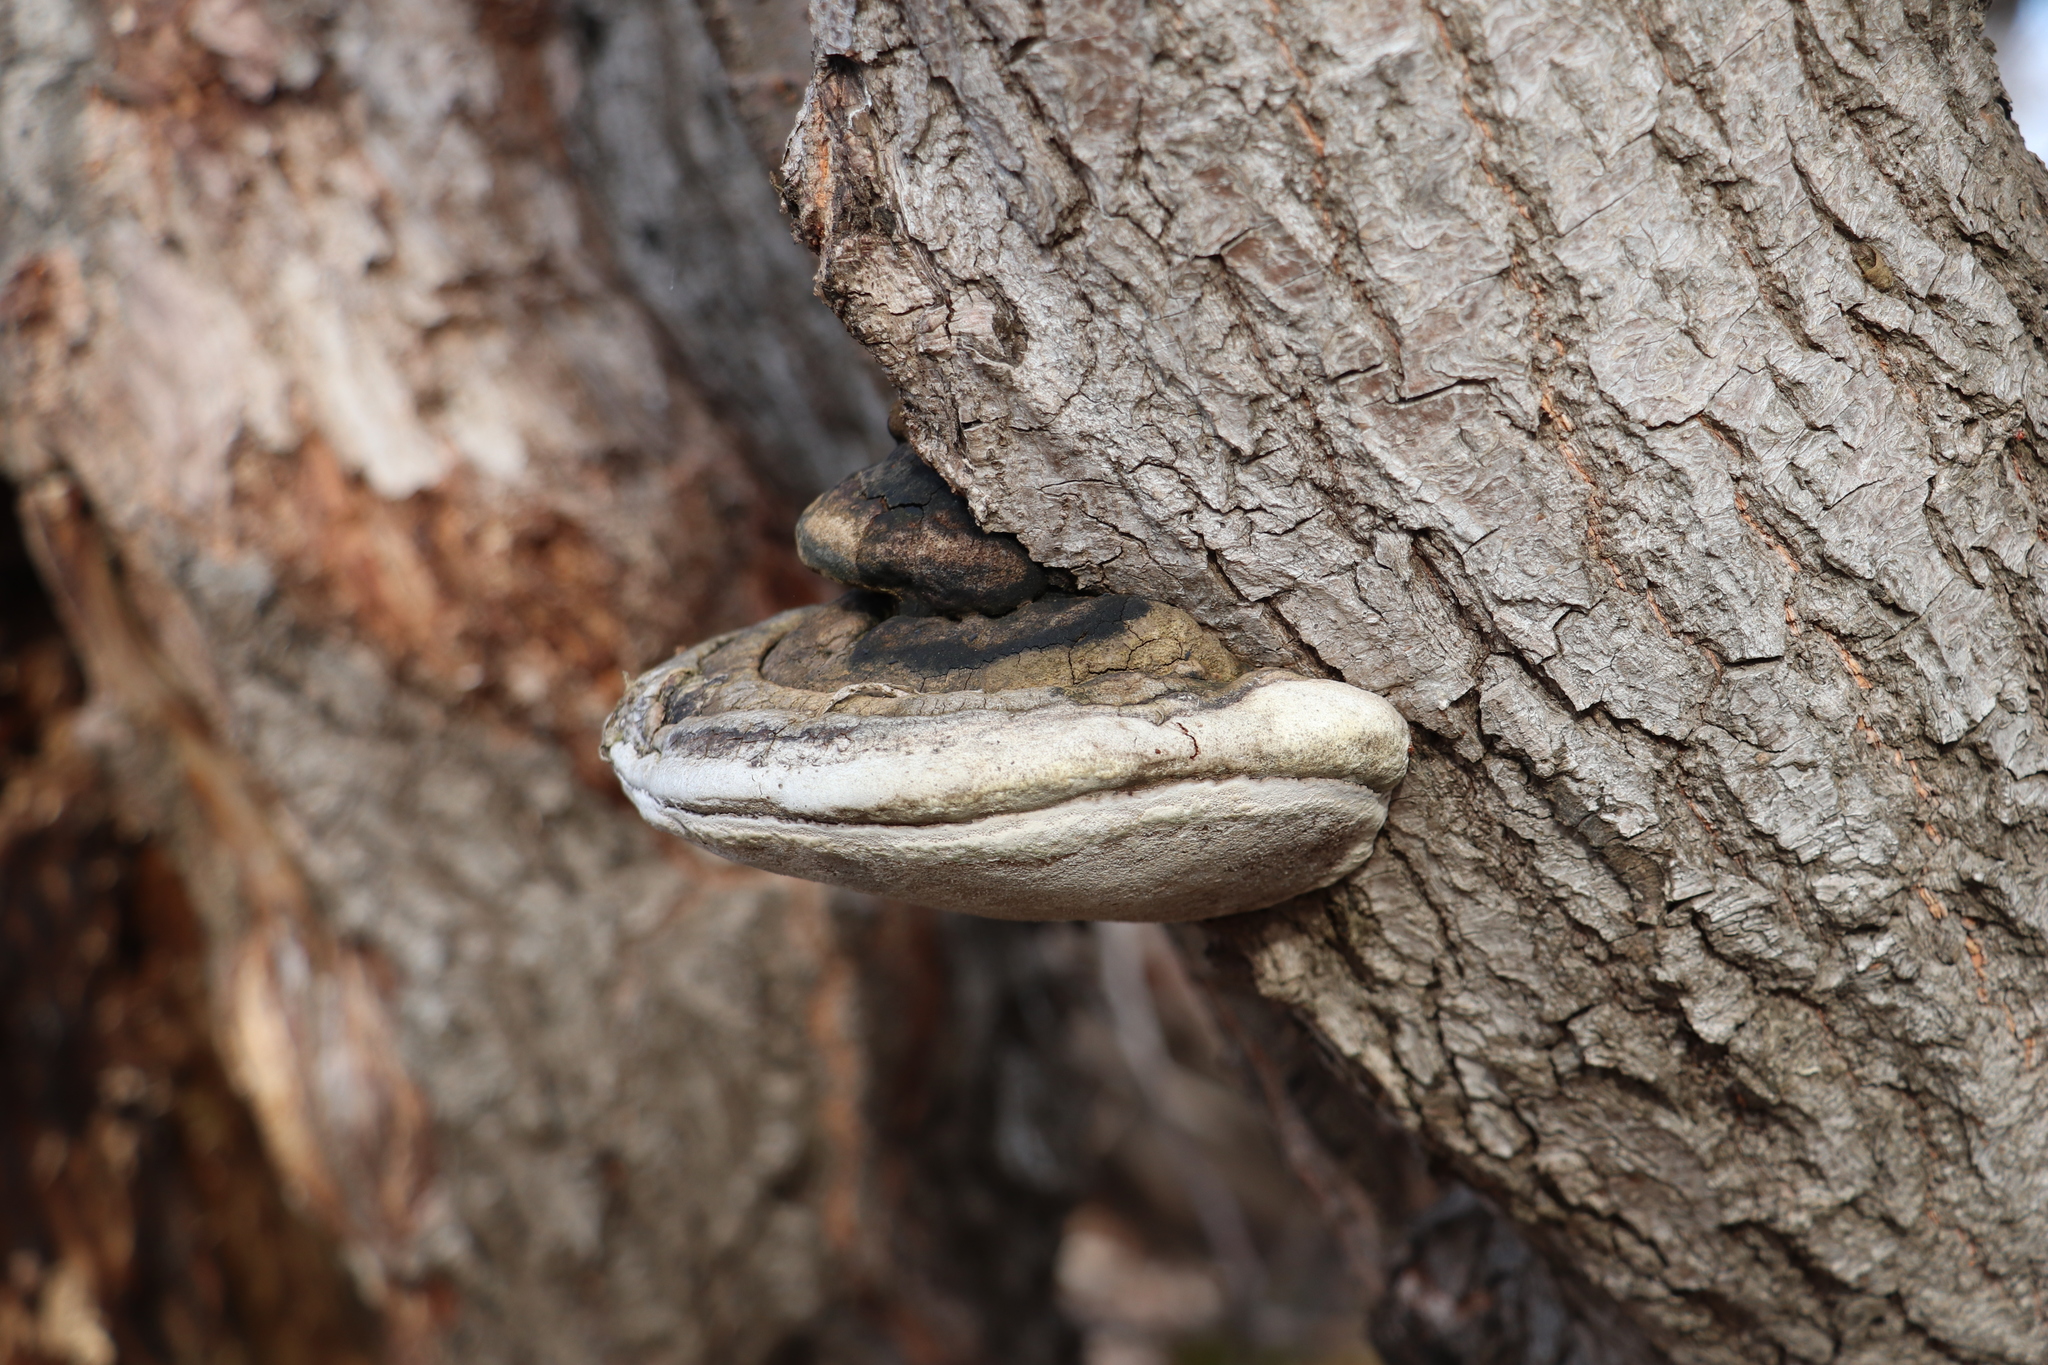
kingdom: Fungi
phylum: Basidiomycota
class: Agaricomycetes
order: Hymenochaetales
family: Hymenochaetaceae
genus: Phellinus
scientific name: Phellinus igniarius
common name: Willow bracket
